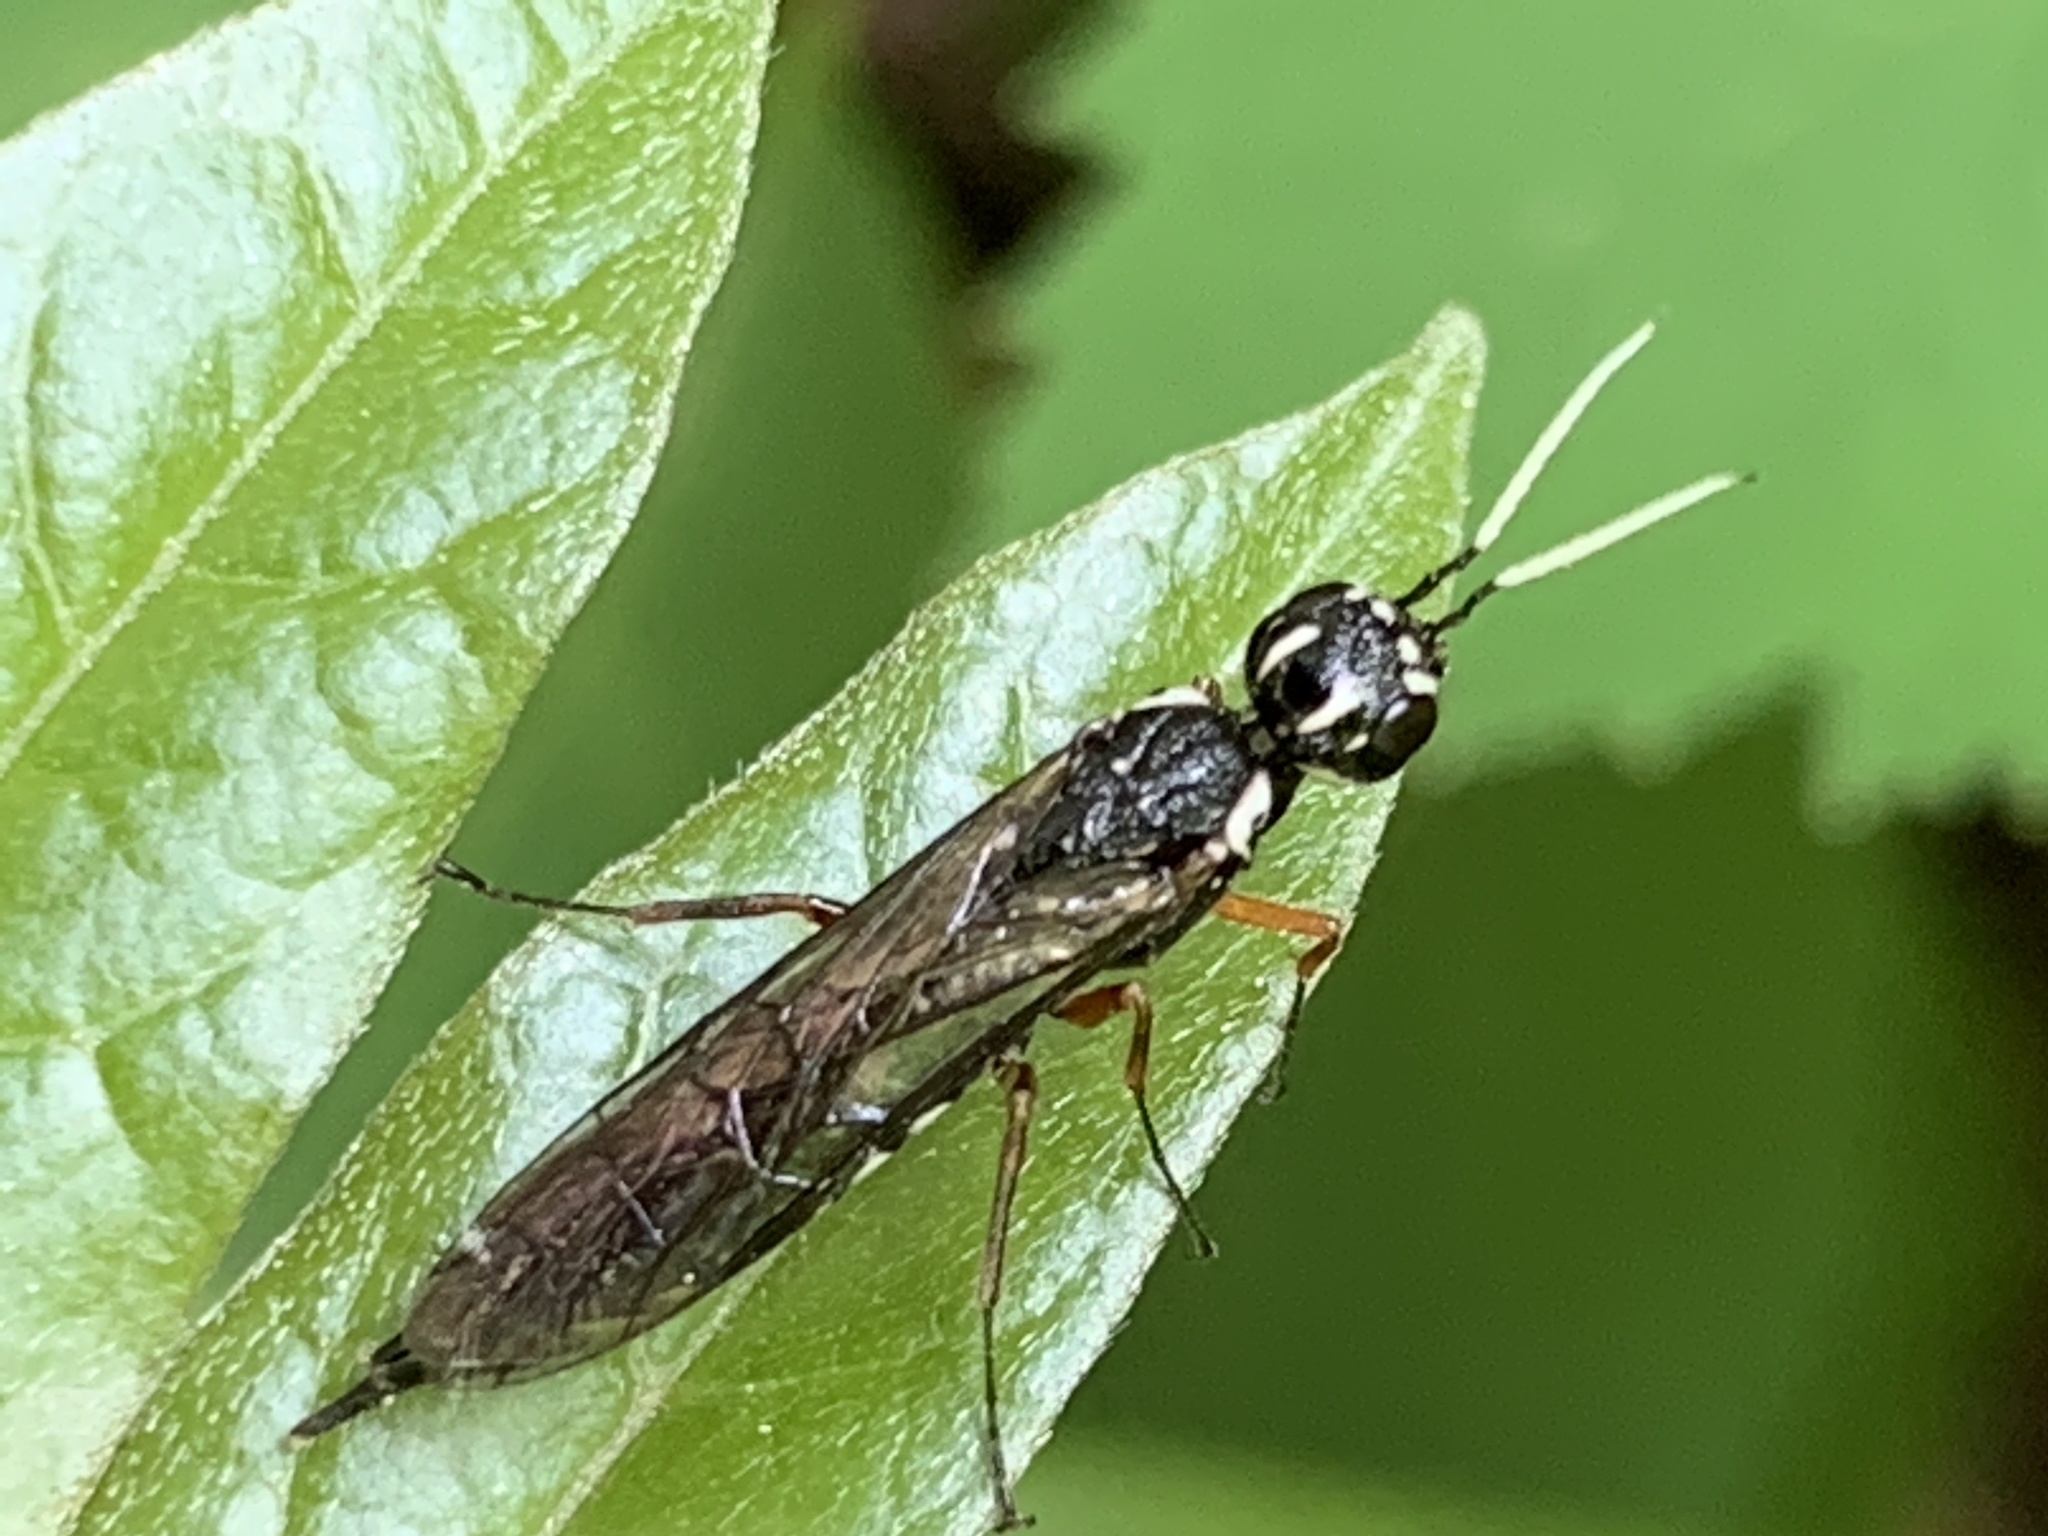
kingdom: Animalia
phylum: Arthropoda
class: Insecta
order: Hymenoptera
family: Xiphydriidae
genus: Xiphydria
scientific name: Xiphydria
